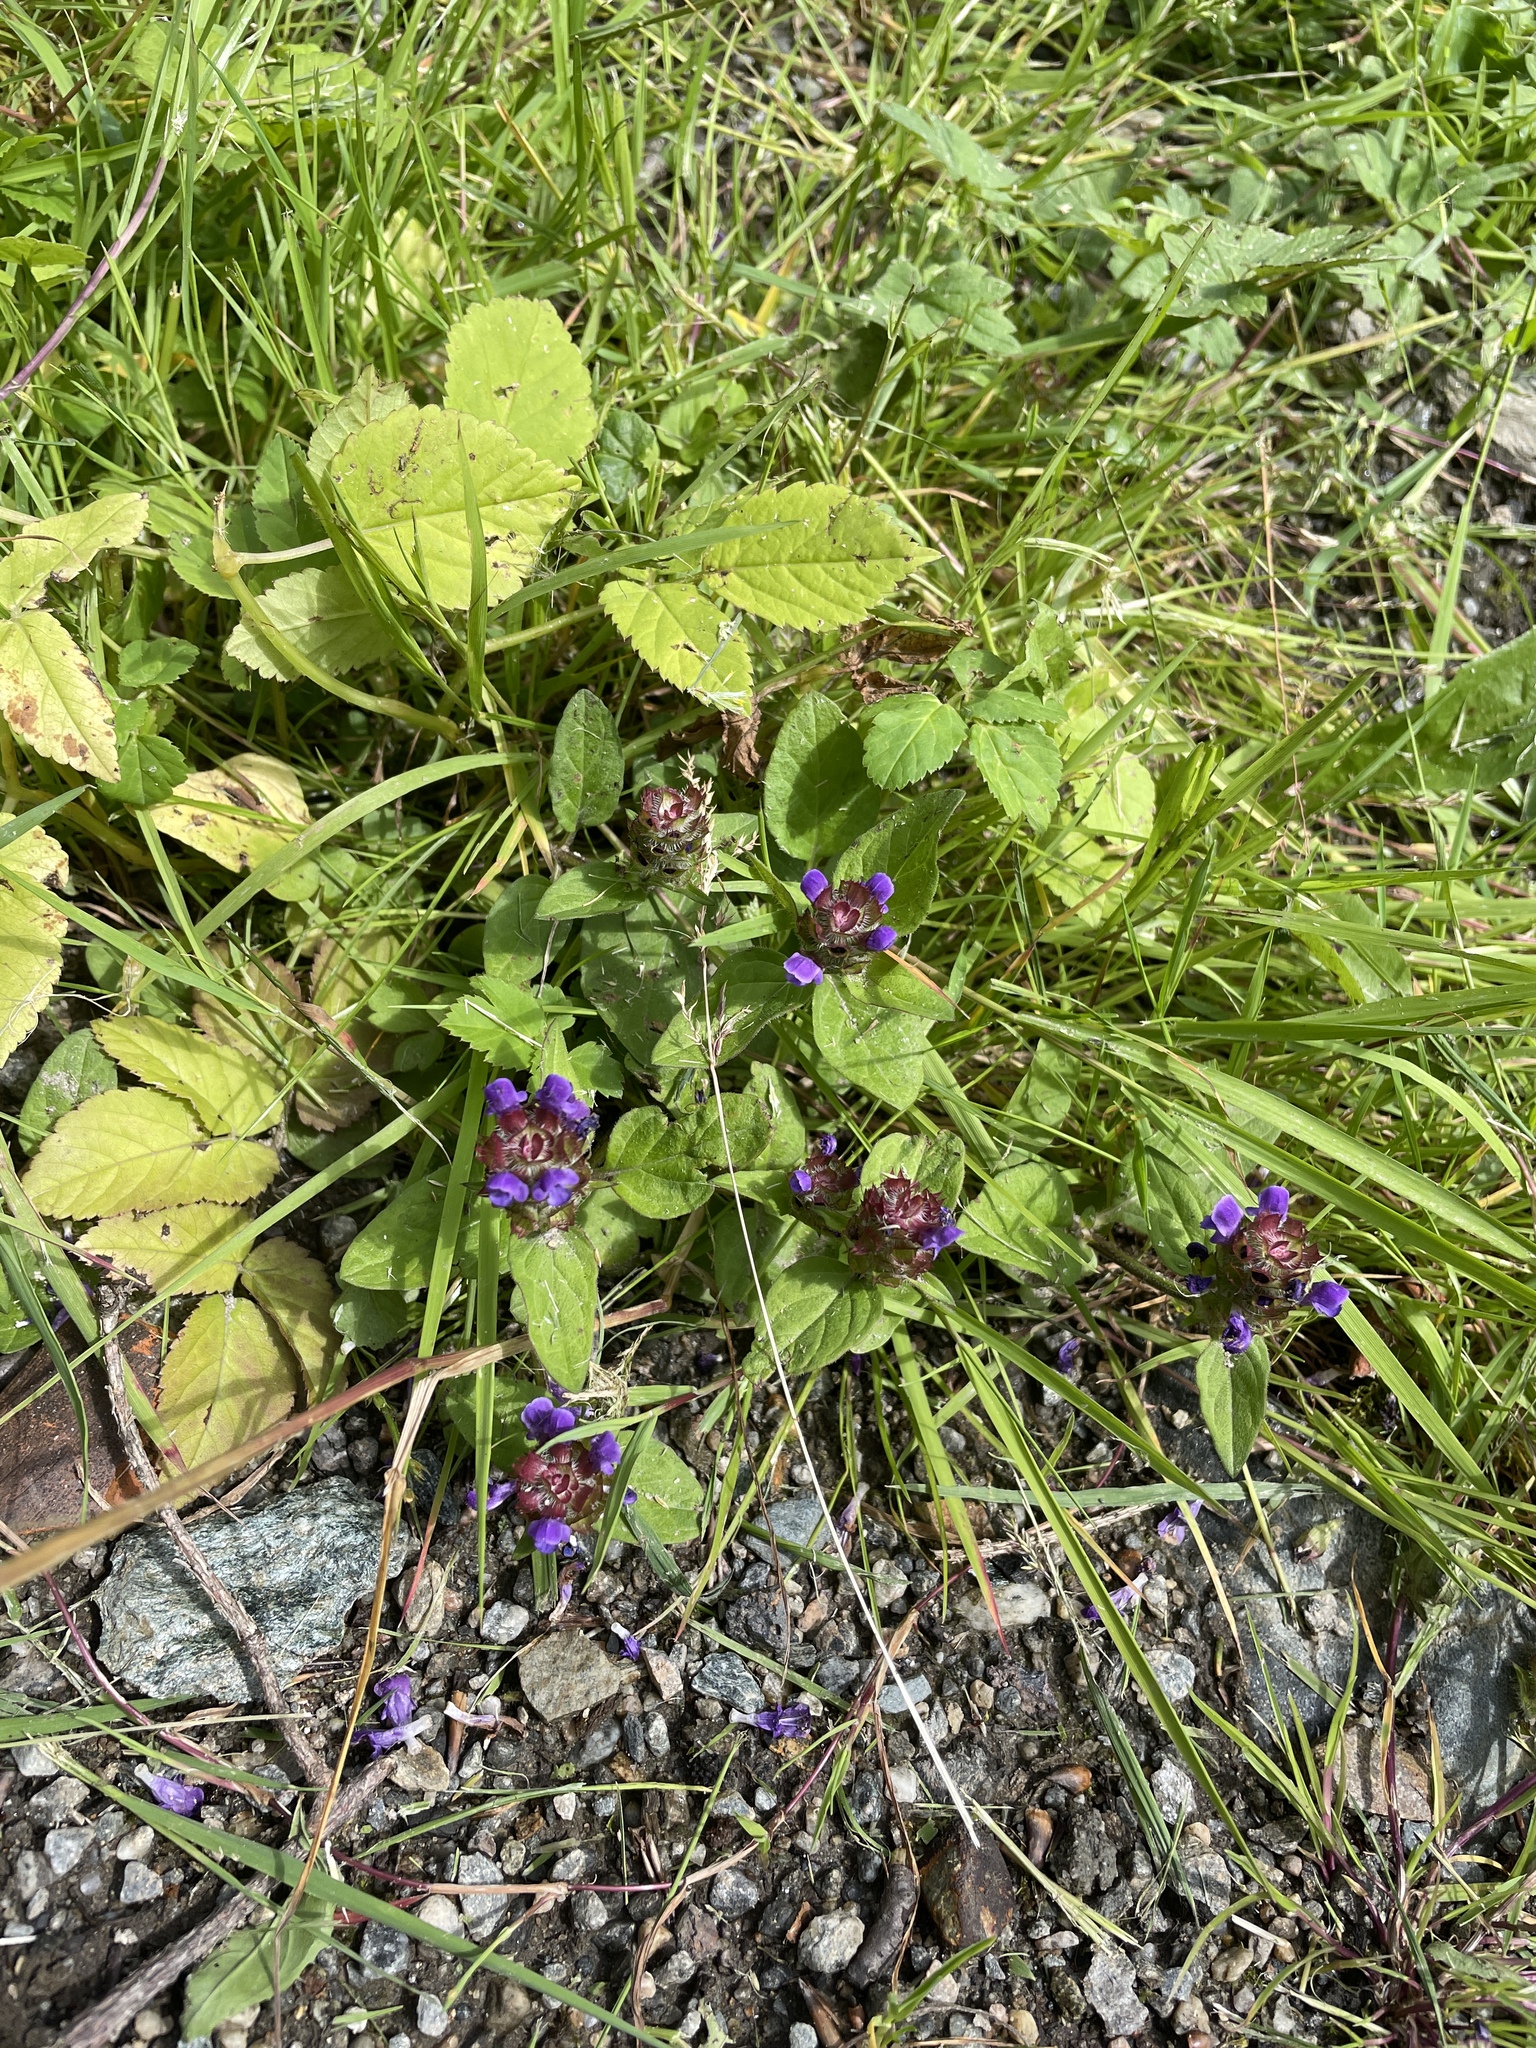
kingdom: Plantae
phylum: Tracheophyta
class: Magnoliopsida
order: Lamiales
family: Lamiaceae
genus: Prunella
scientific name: Prunella vulgaris
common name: Heal-all
